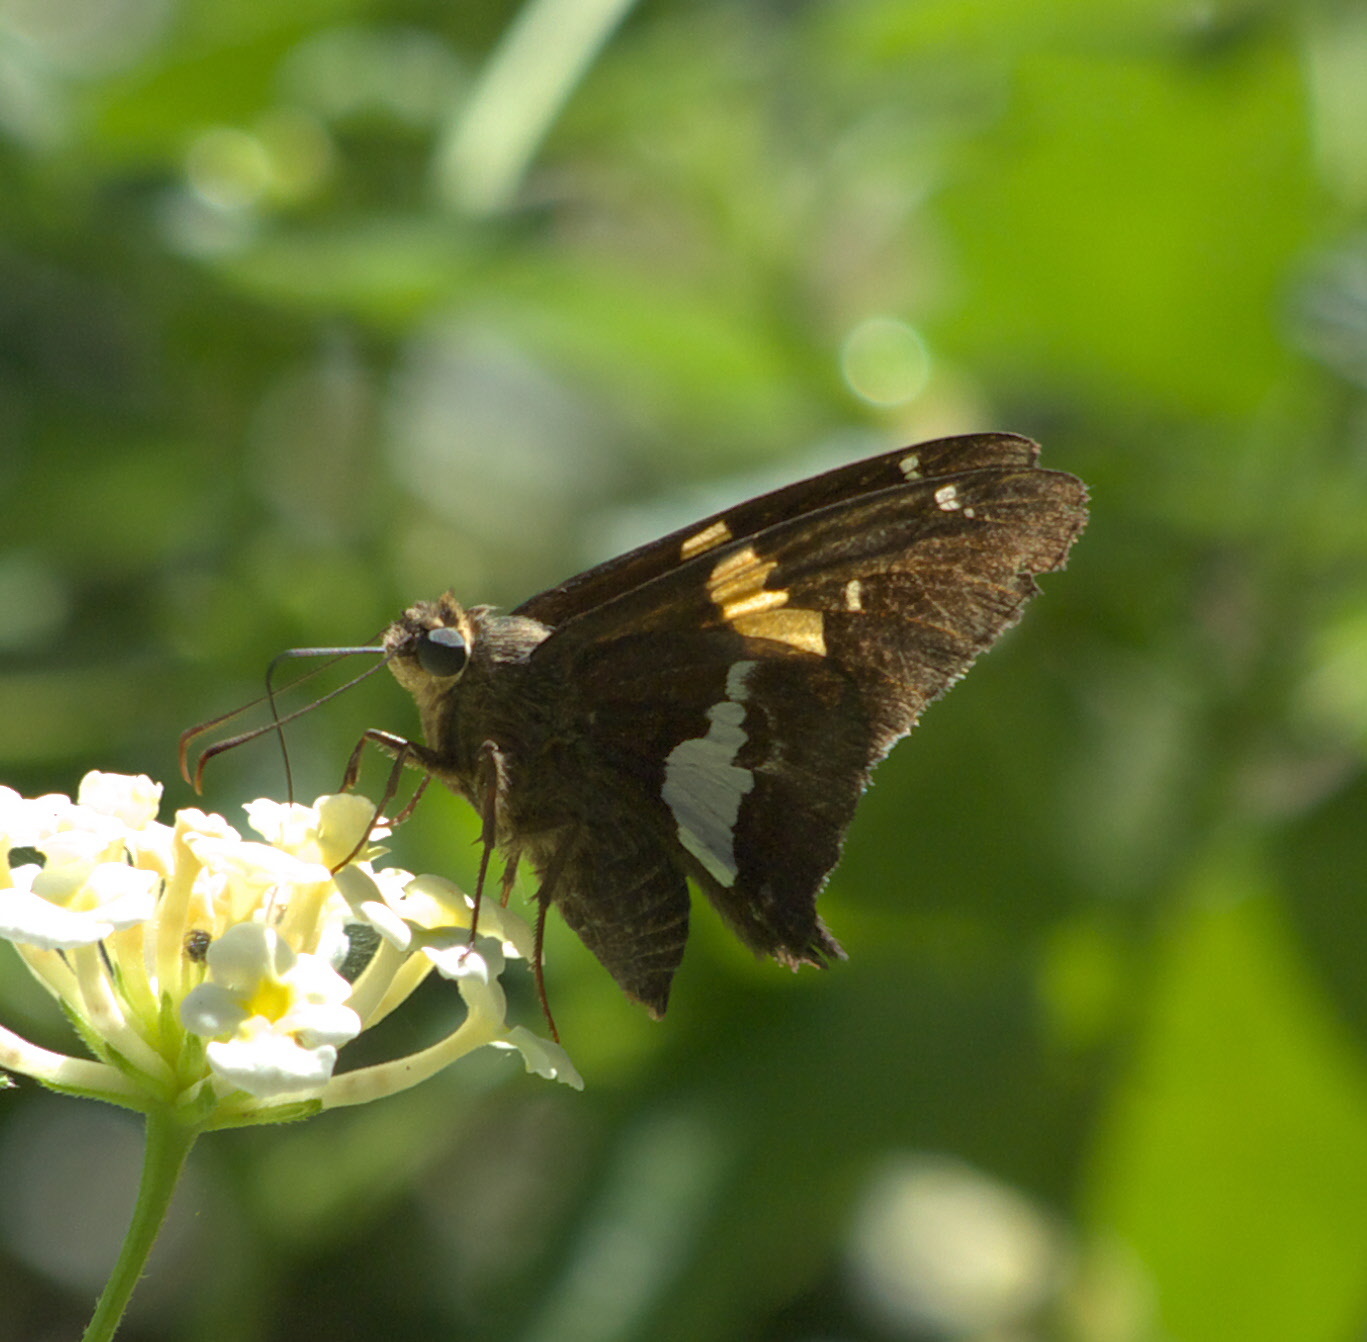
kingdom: Animalia
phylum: Arthropoda
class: Insecta
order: Lepidoptera
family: Hesperiidae
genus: Epargyreus
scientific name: Epargyreus clarus
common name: Silver-spotted skipper
